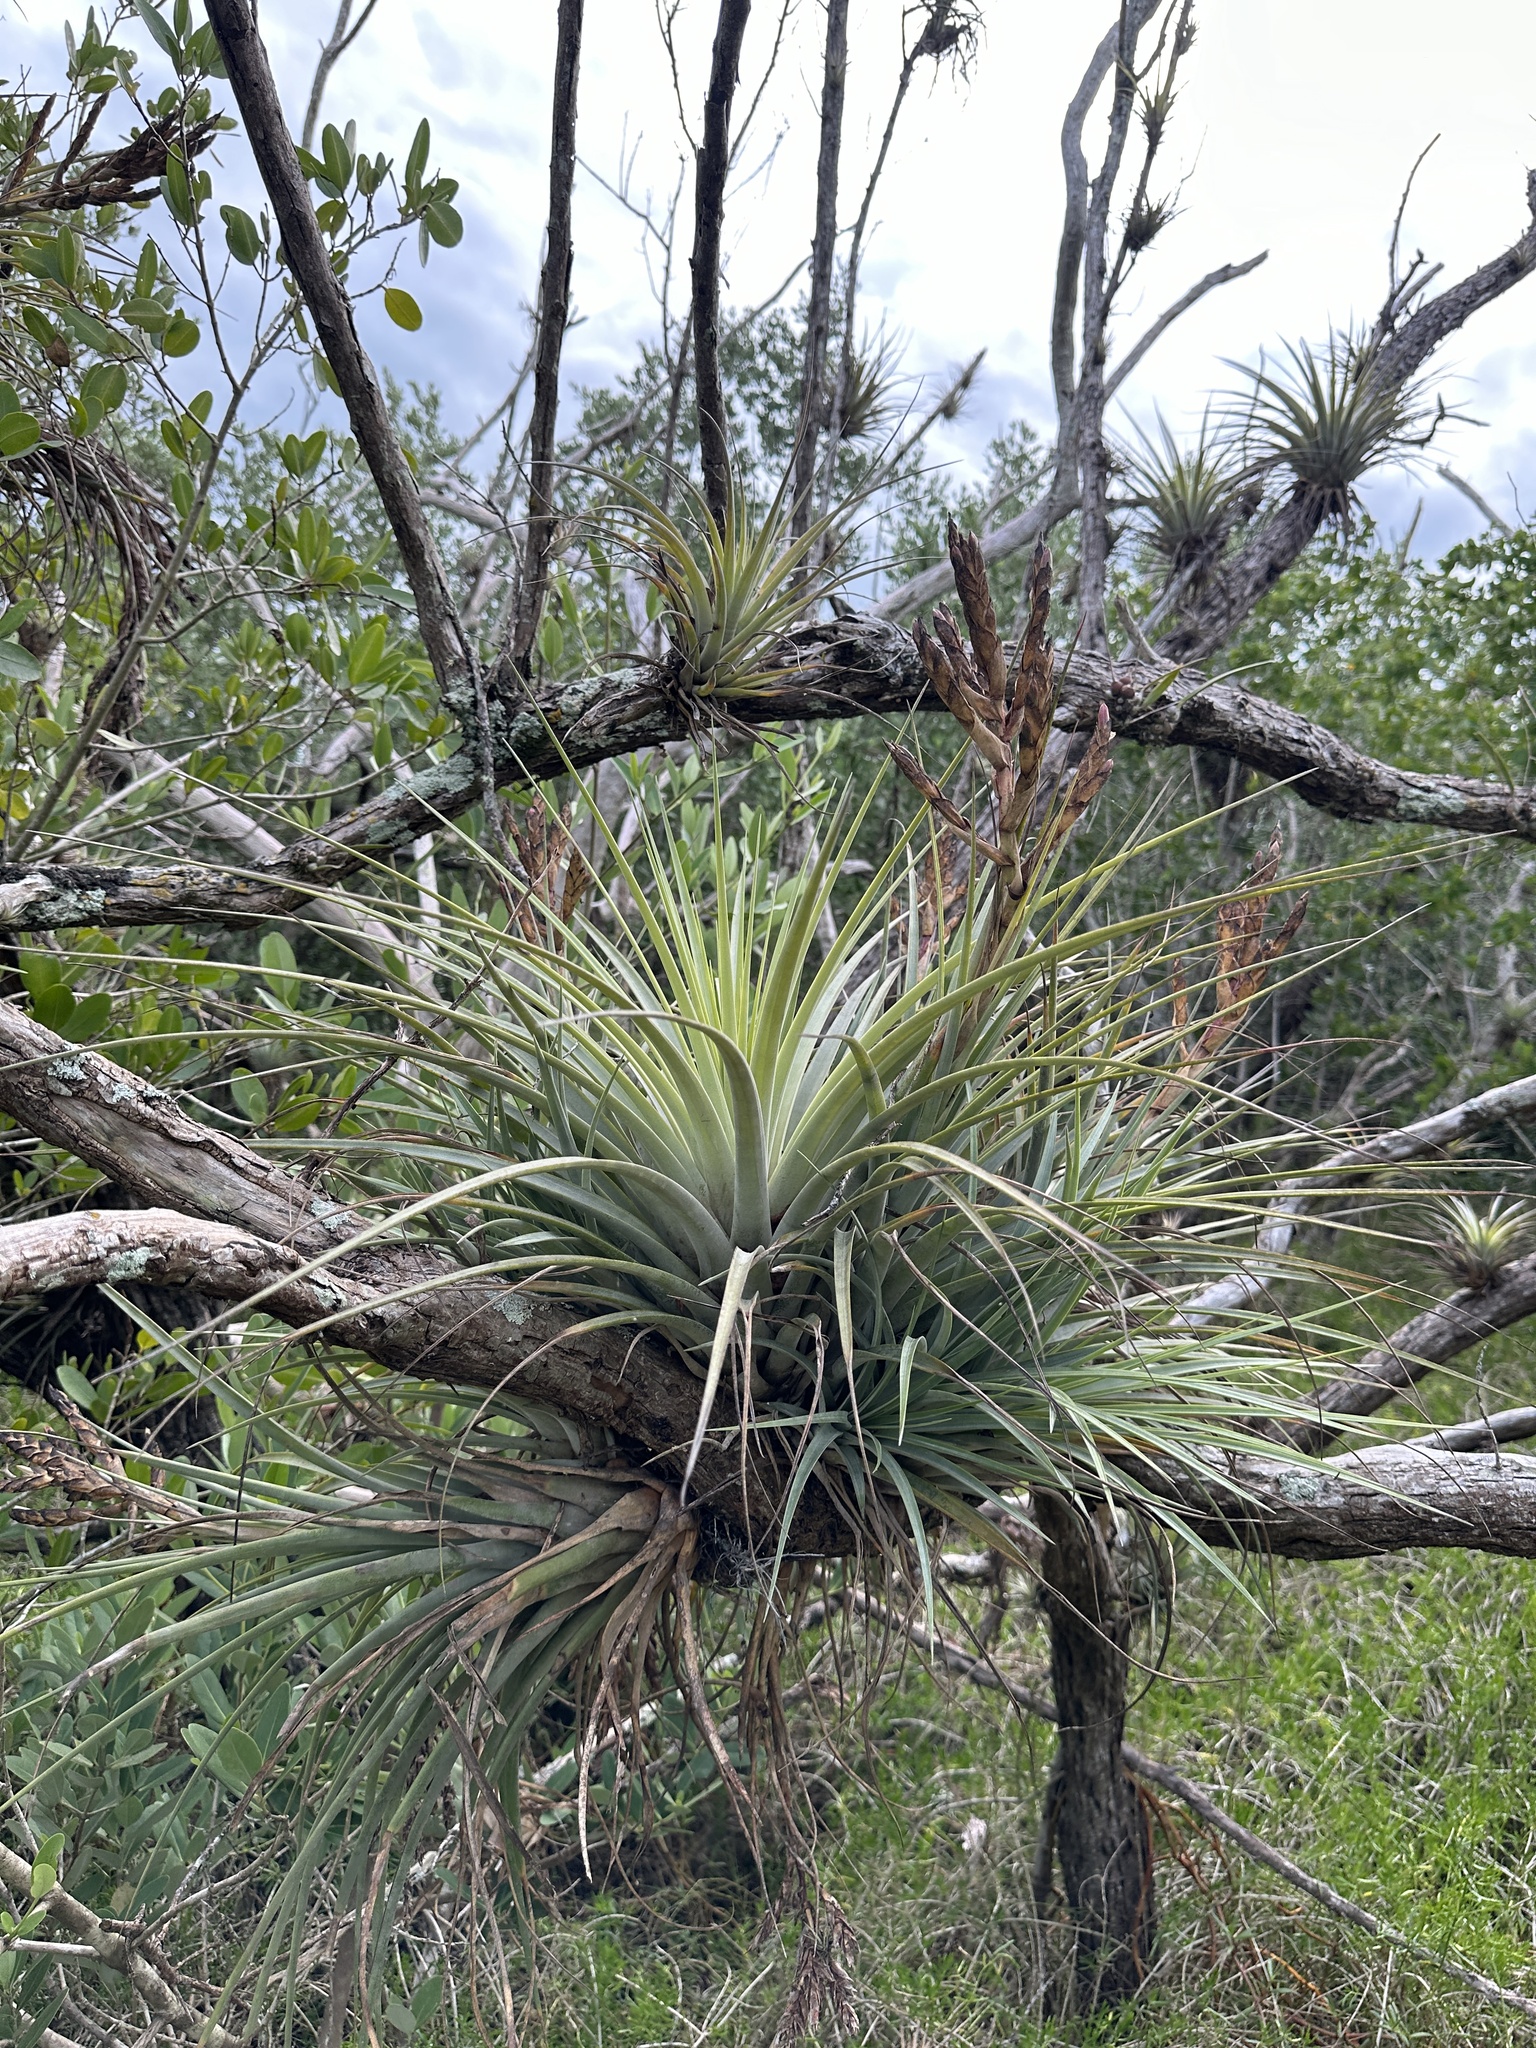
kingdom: Plantae
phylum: Tracheophyta
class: Liliopsida
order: Poales
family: Bromeliaceae
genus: Tillandsia
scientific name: Tillandsia fasciculata
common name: Giant airplant
